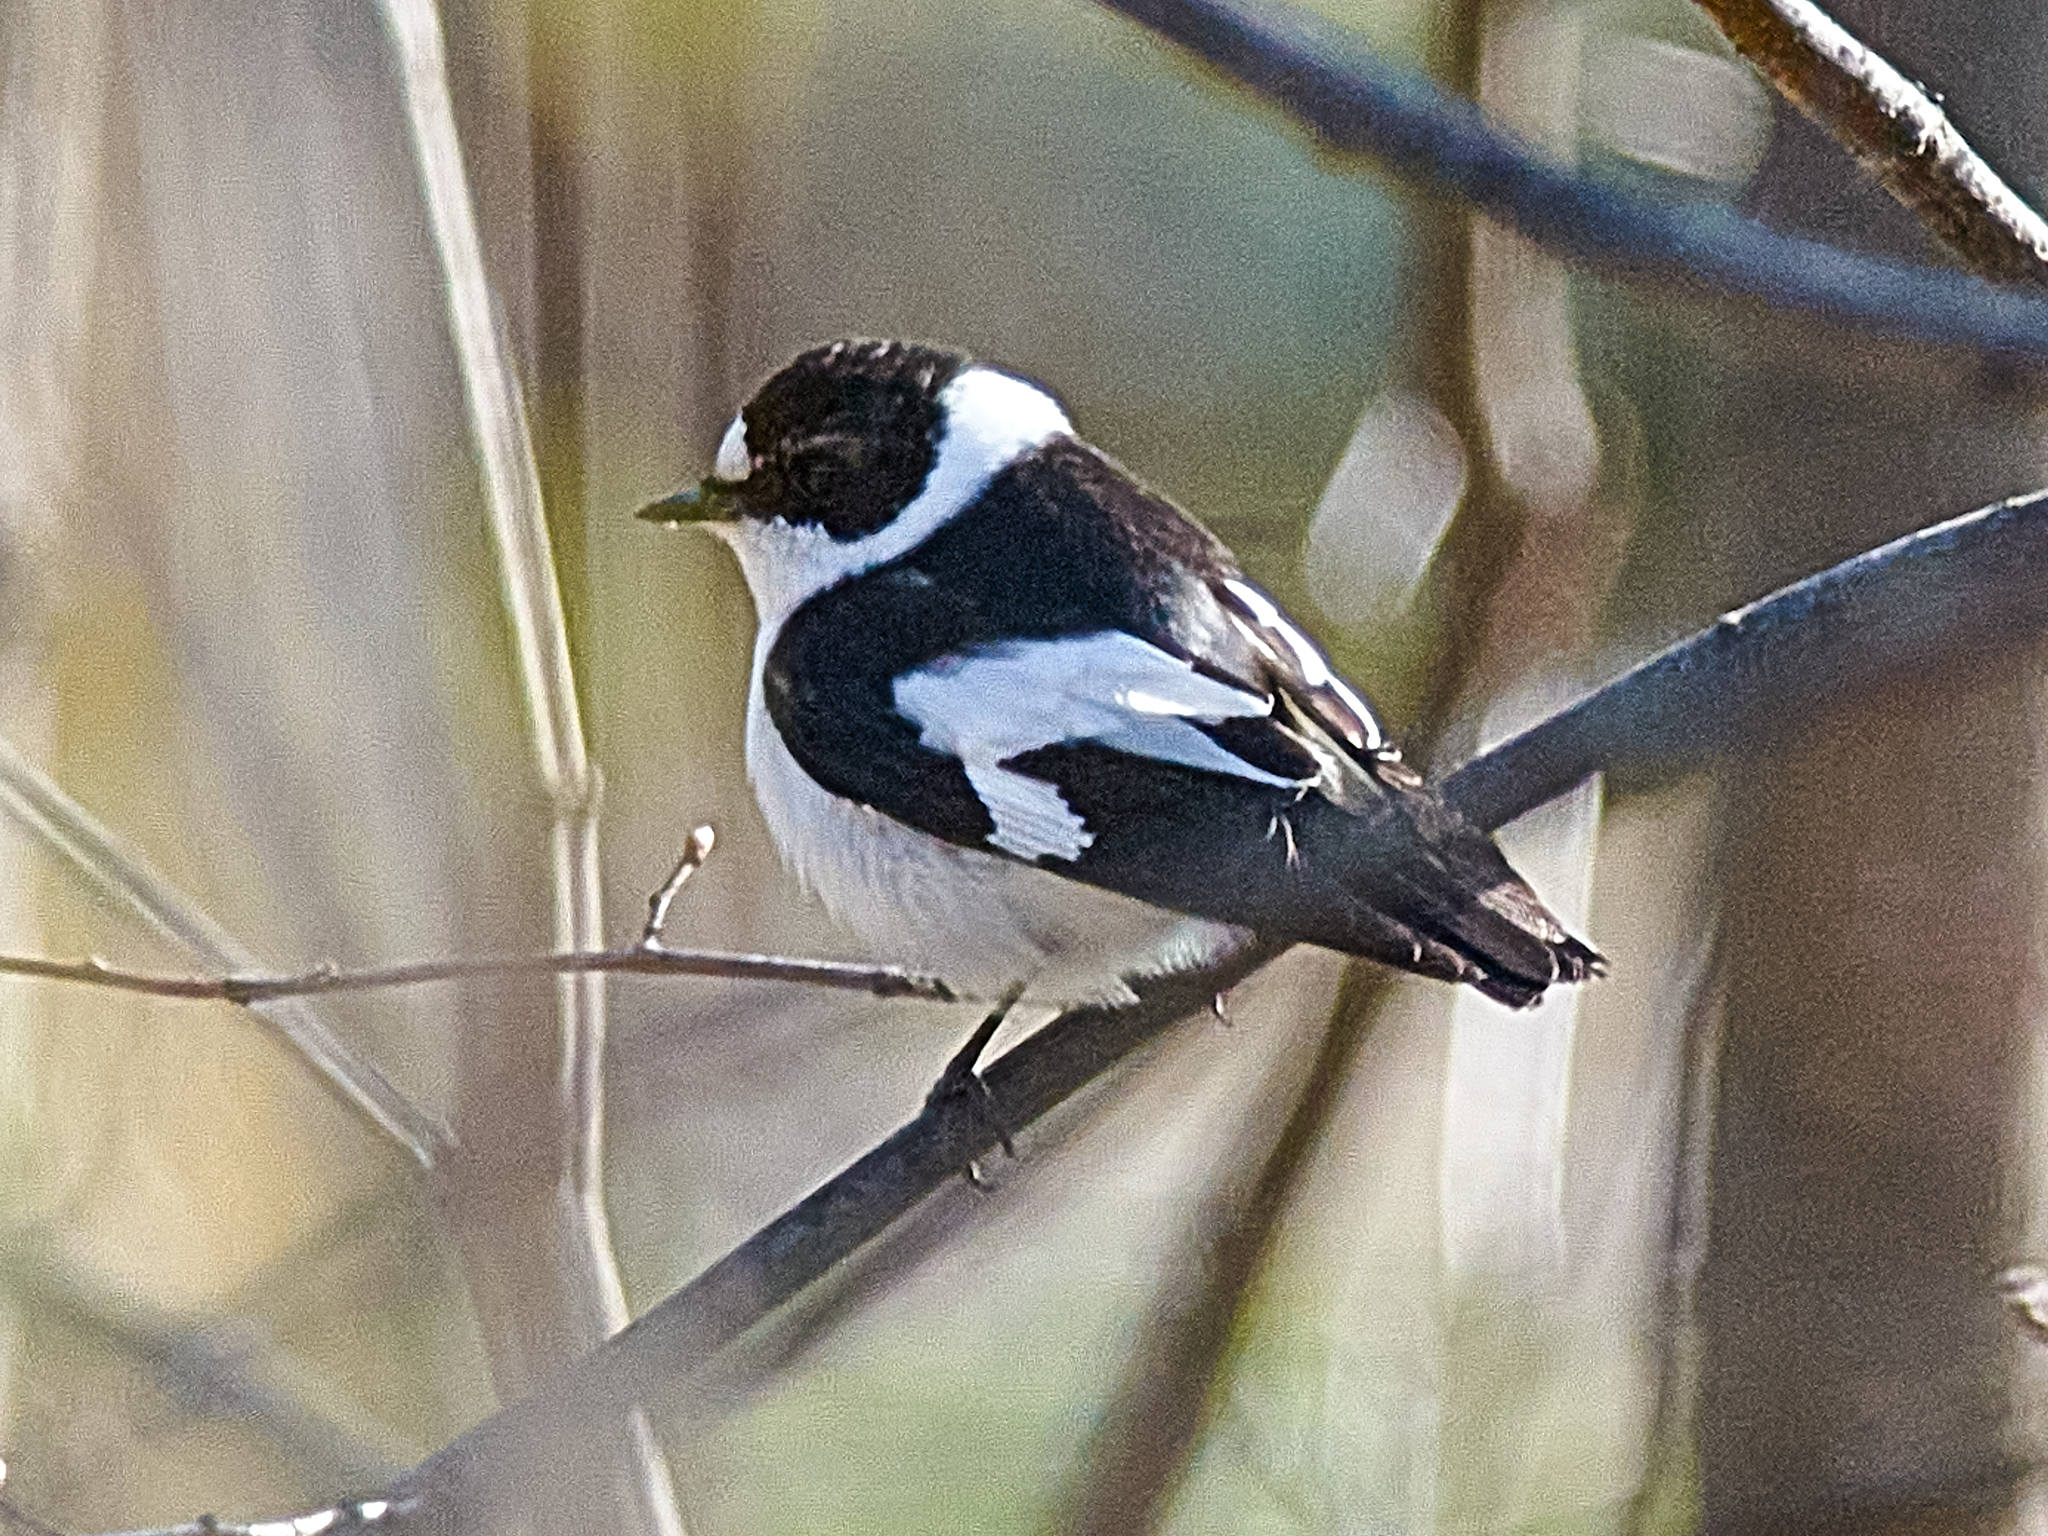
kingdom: Animalia
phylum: Chordata
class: Aves
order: Passeriformes
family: Muscicapidae
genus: Ficedula
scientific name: Ficedula albicollis
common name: Collared flycatcher
